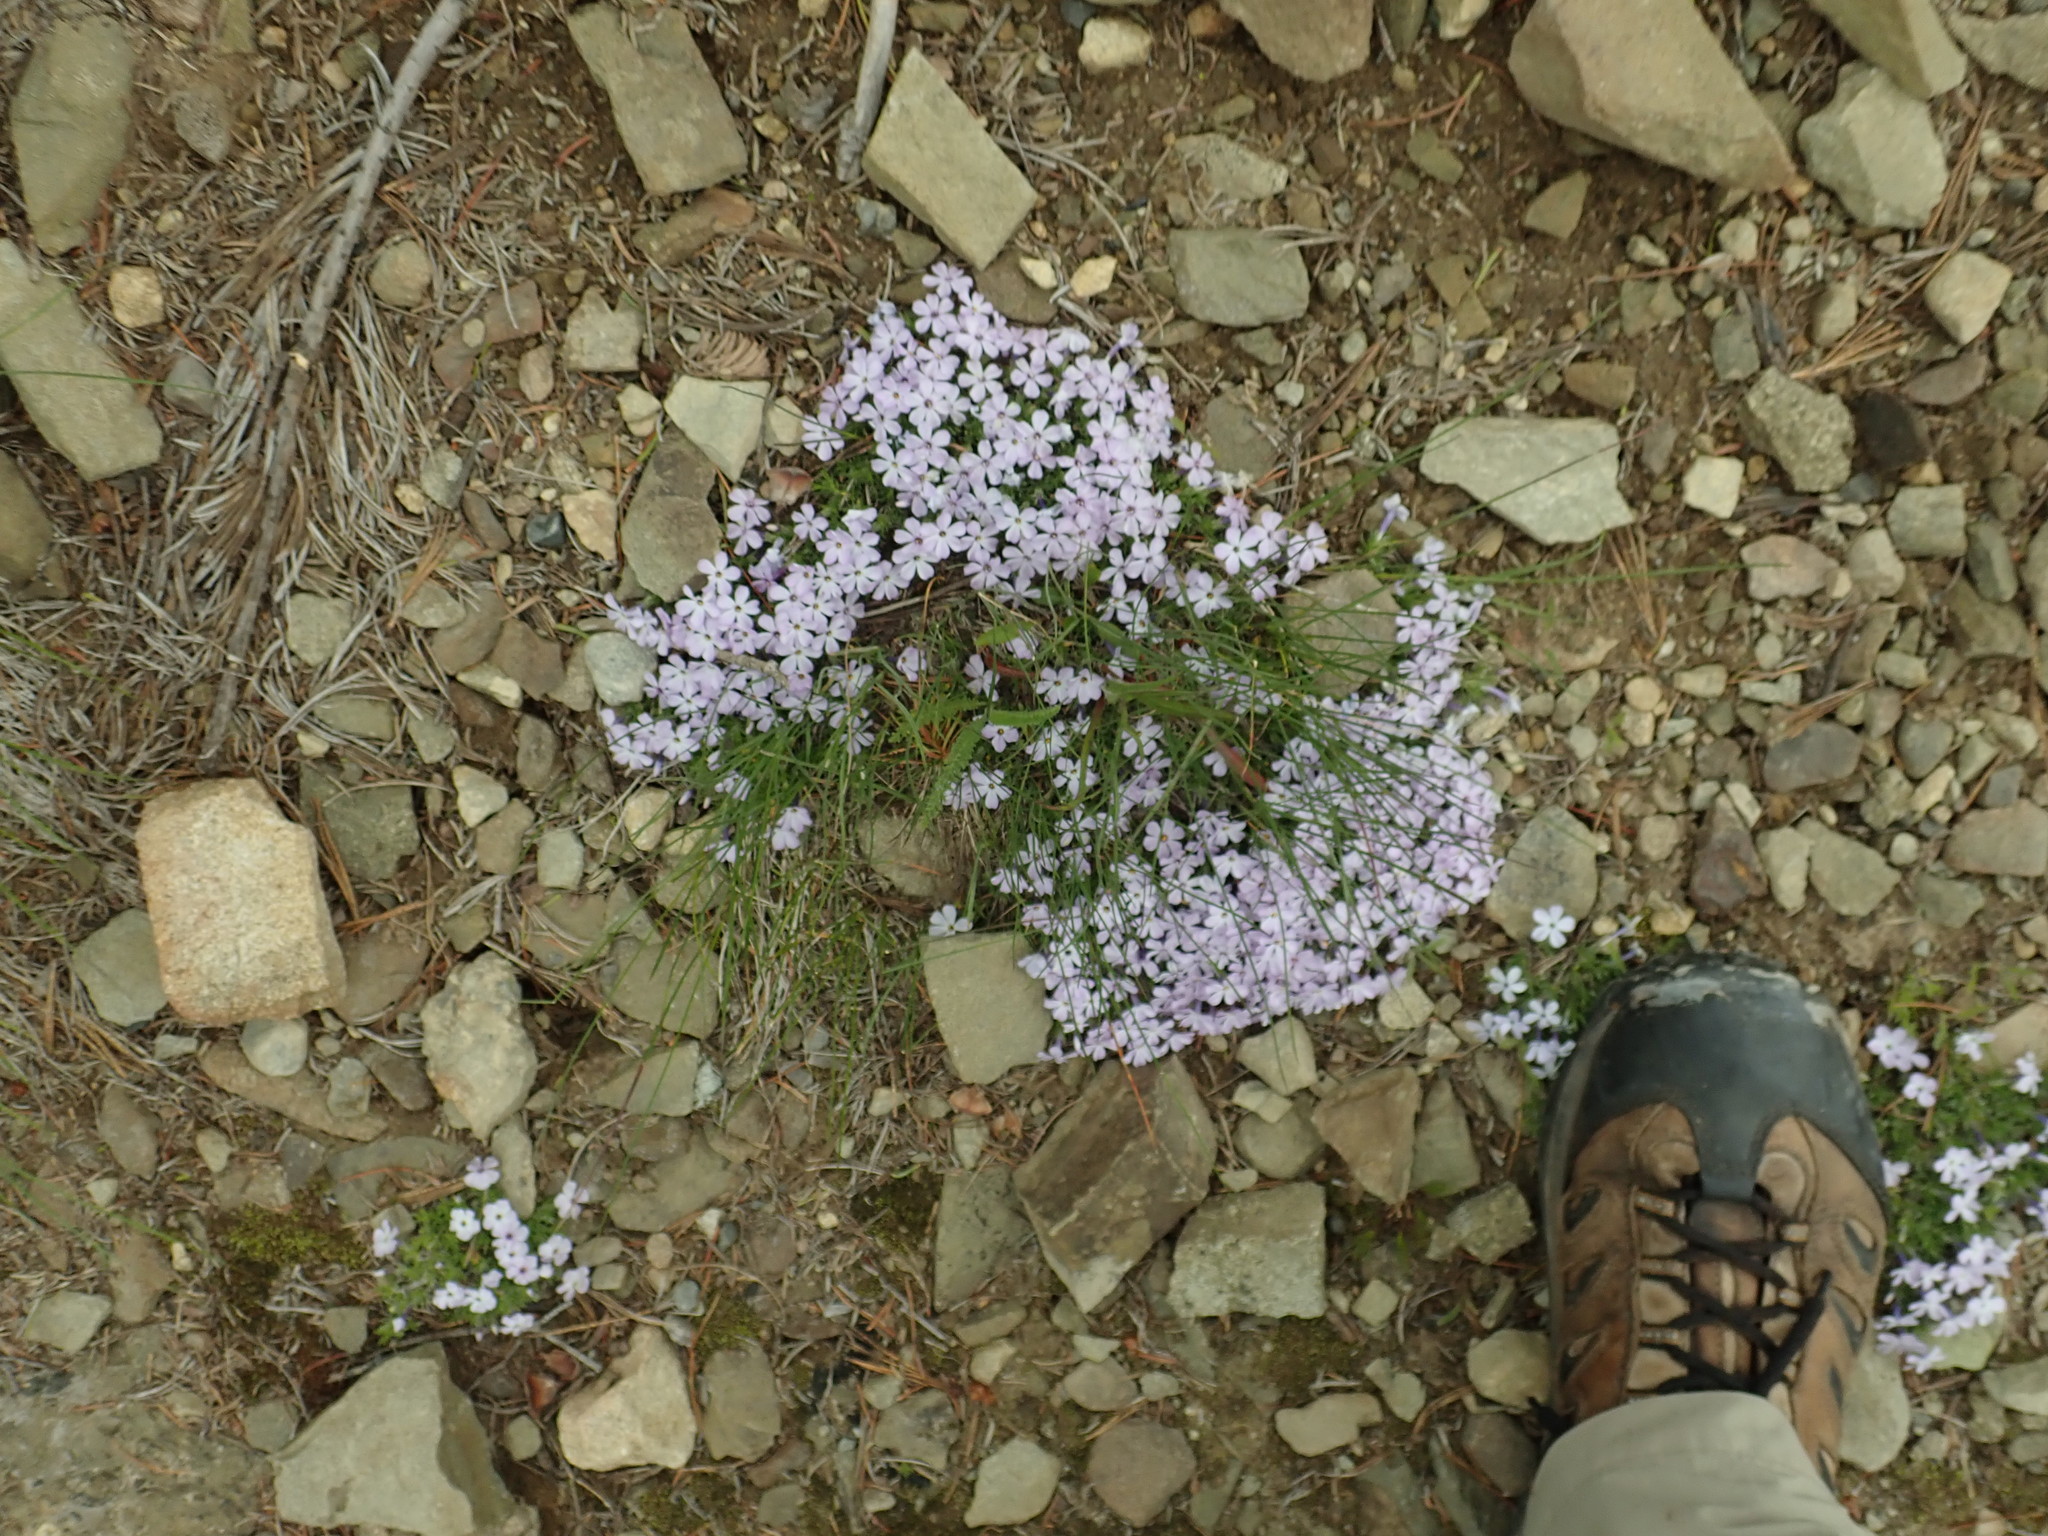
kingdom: Plantae
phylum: Tracheophyta
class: Magnoliopsida
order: Ericales
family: Polemoniaceae
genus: Phlox
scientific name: Phlox diffusa
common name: Mat phlox
